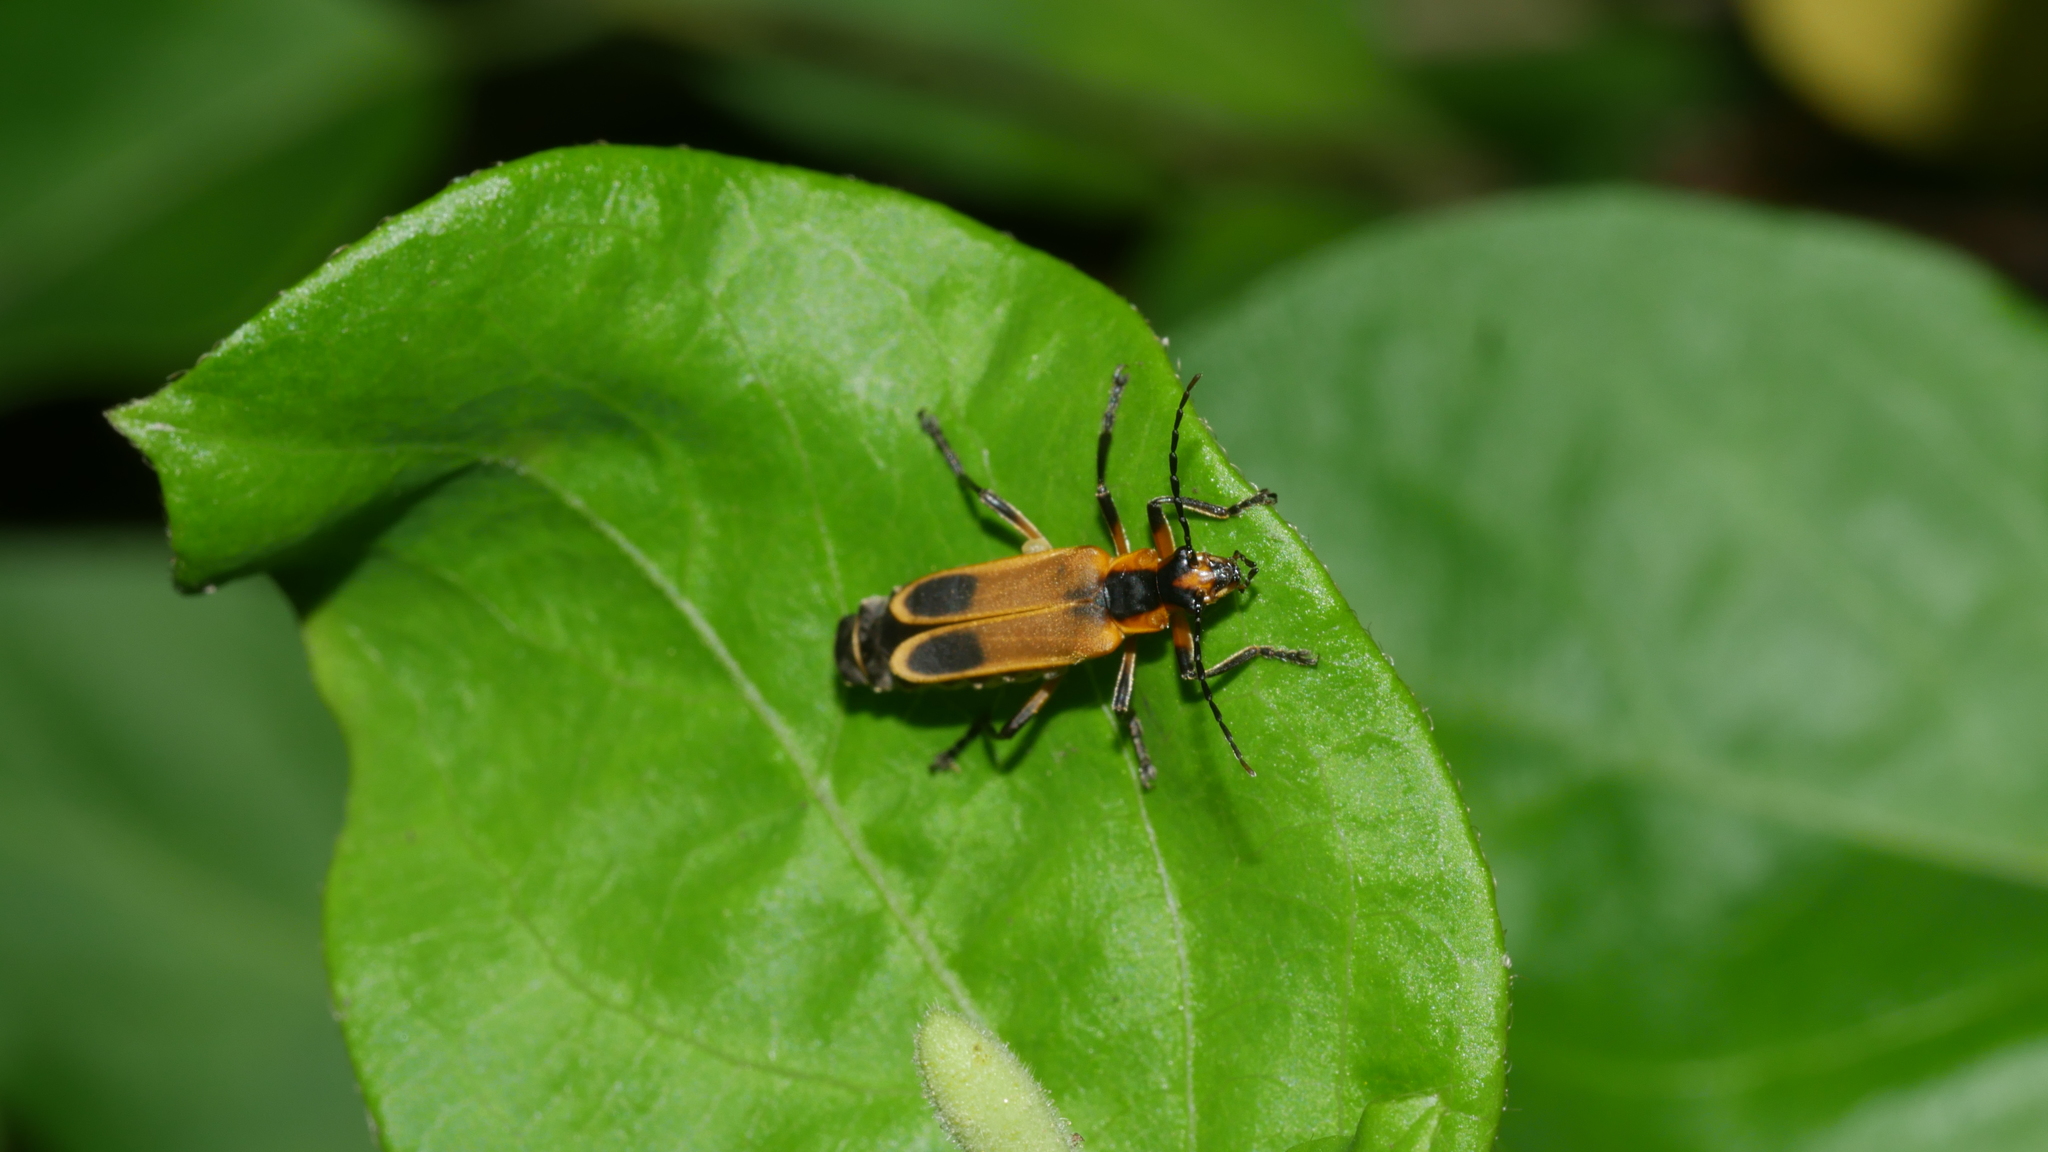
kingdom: Animalia
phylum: Arthropoda
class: Insecta
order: Coleoptera
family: Cantharidae
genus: Chauliognathus
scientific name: Chauliognathus marginatus
